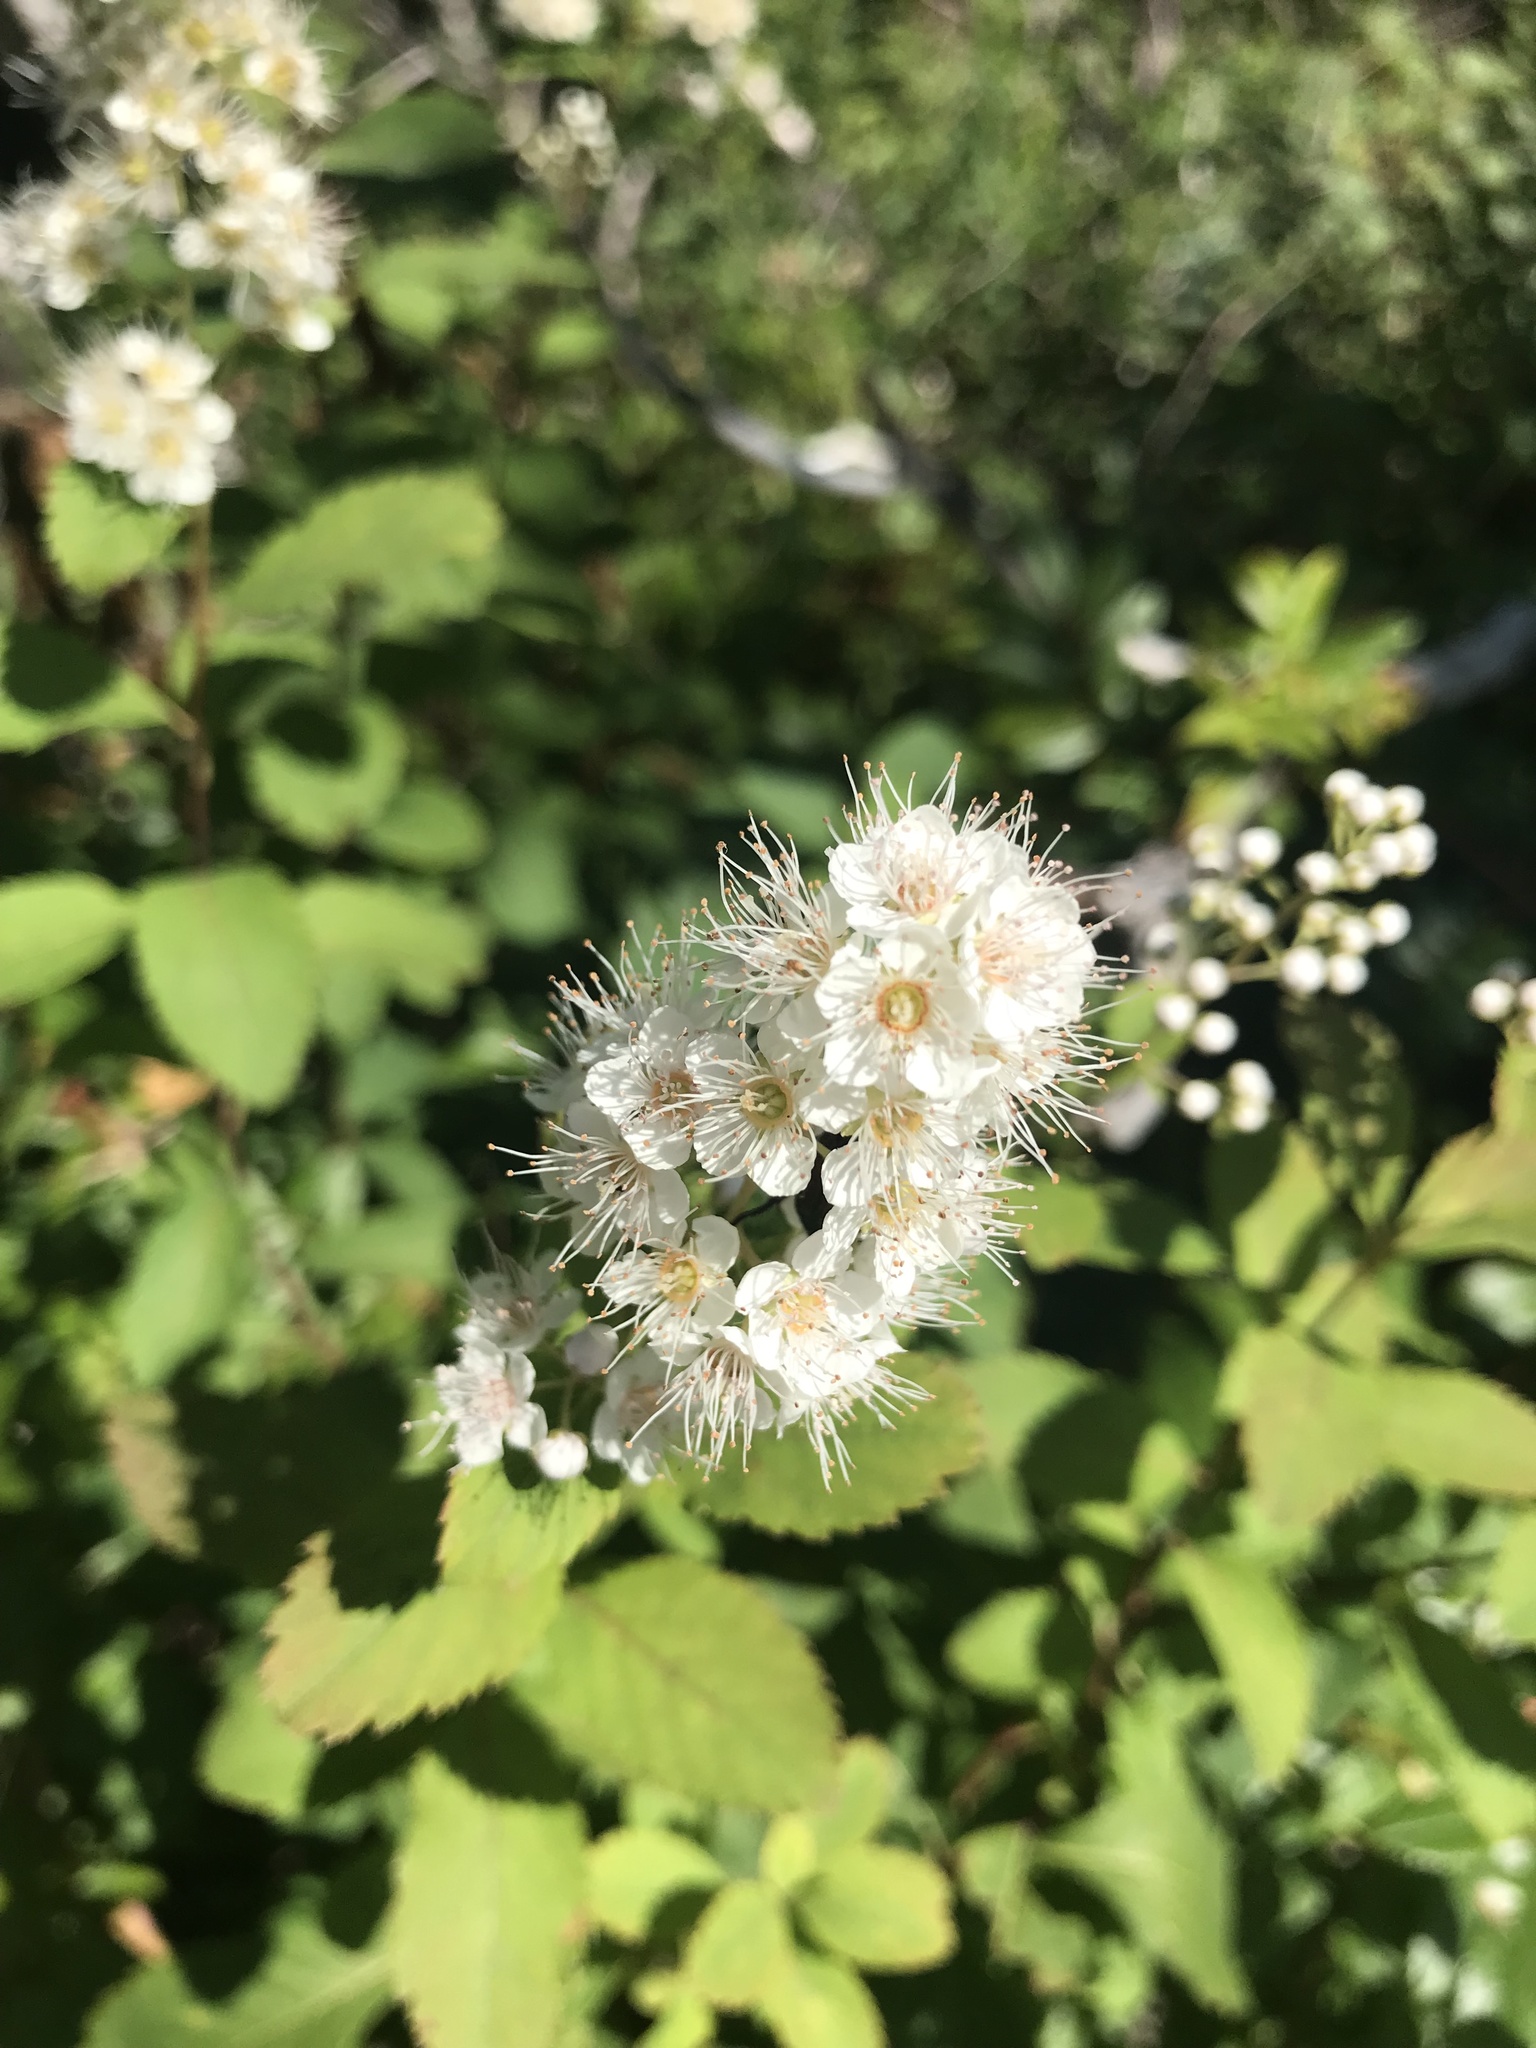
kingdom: Plantae
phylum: Tracheophyta
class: Magnoliopsida
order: Rosales
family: Rosaceae
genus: Spiraea
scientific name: Spiraea alba
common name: Pale bridewort
